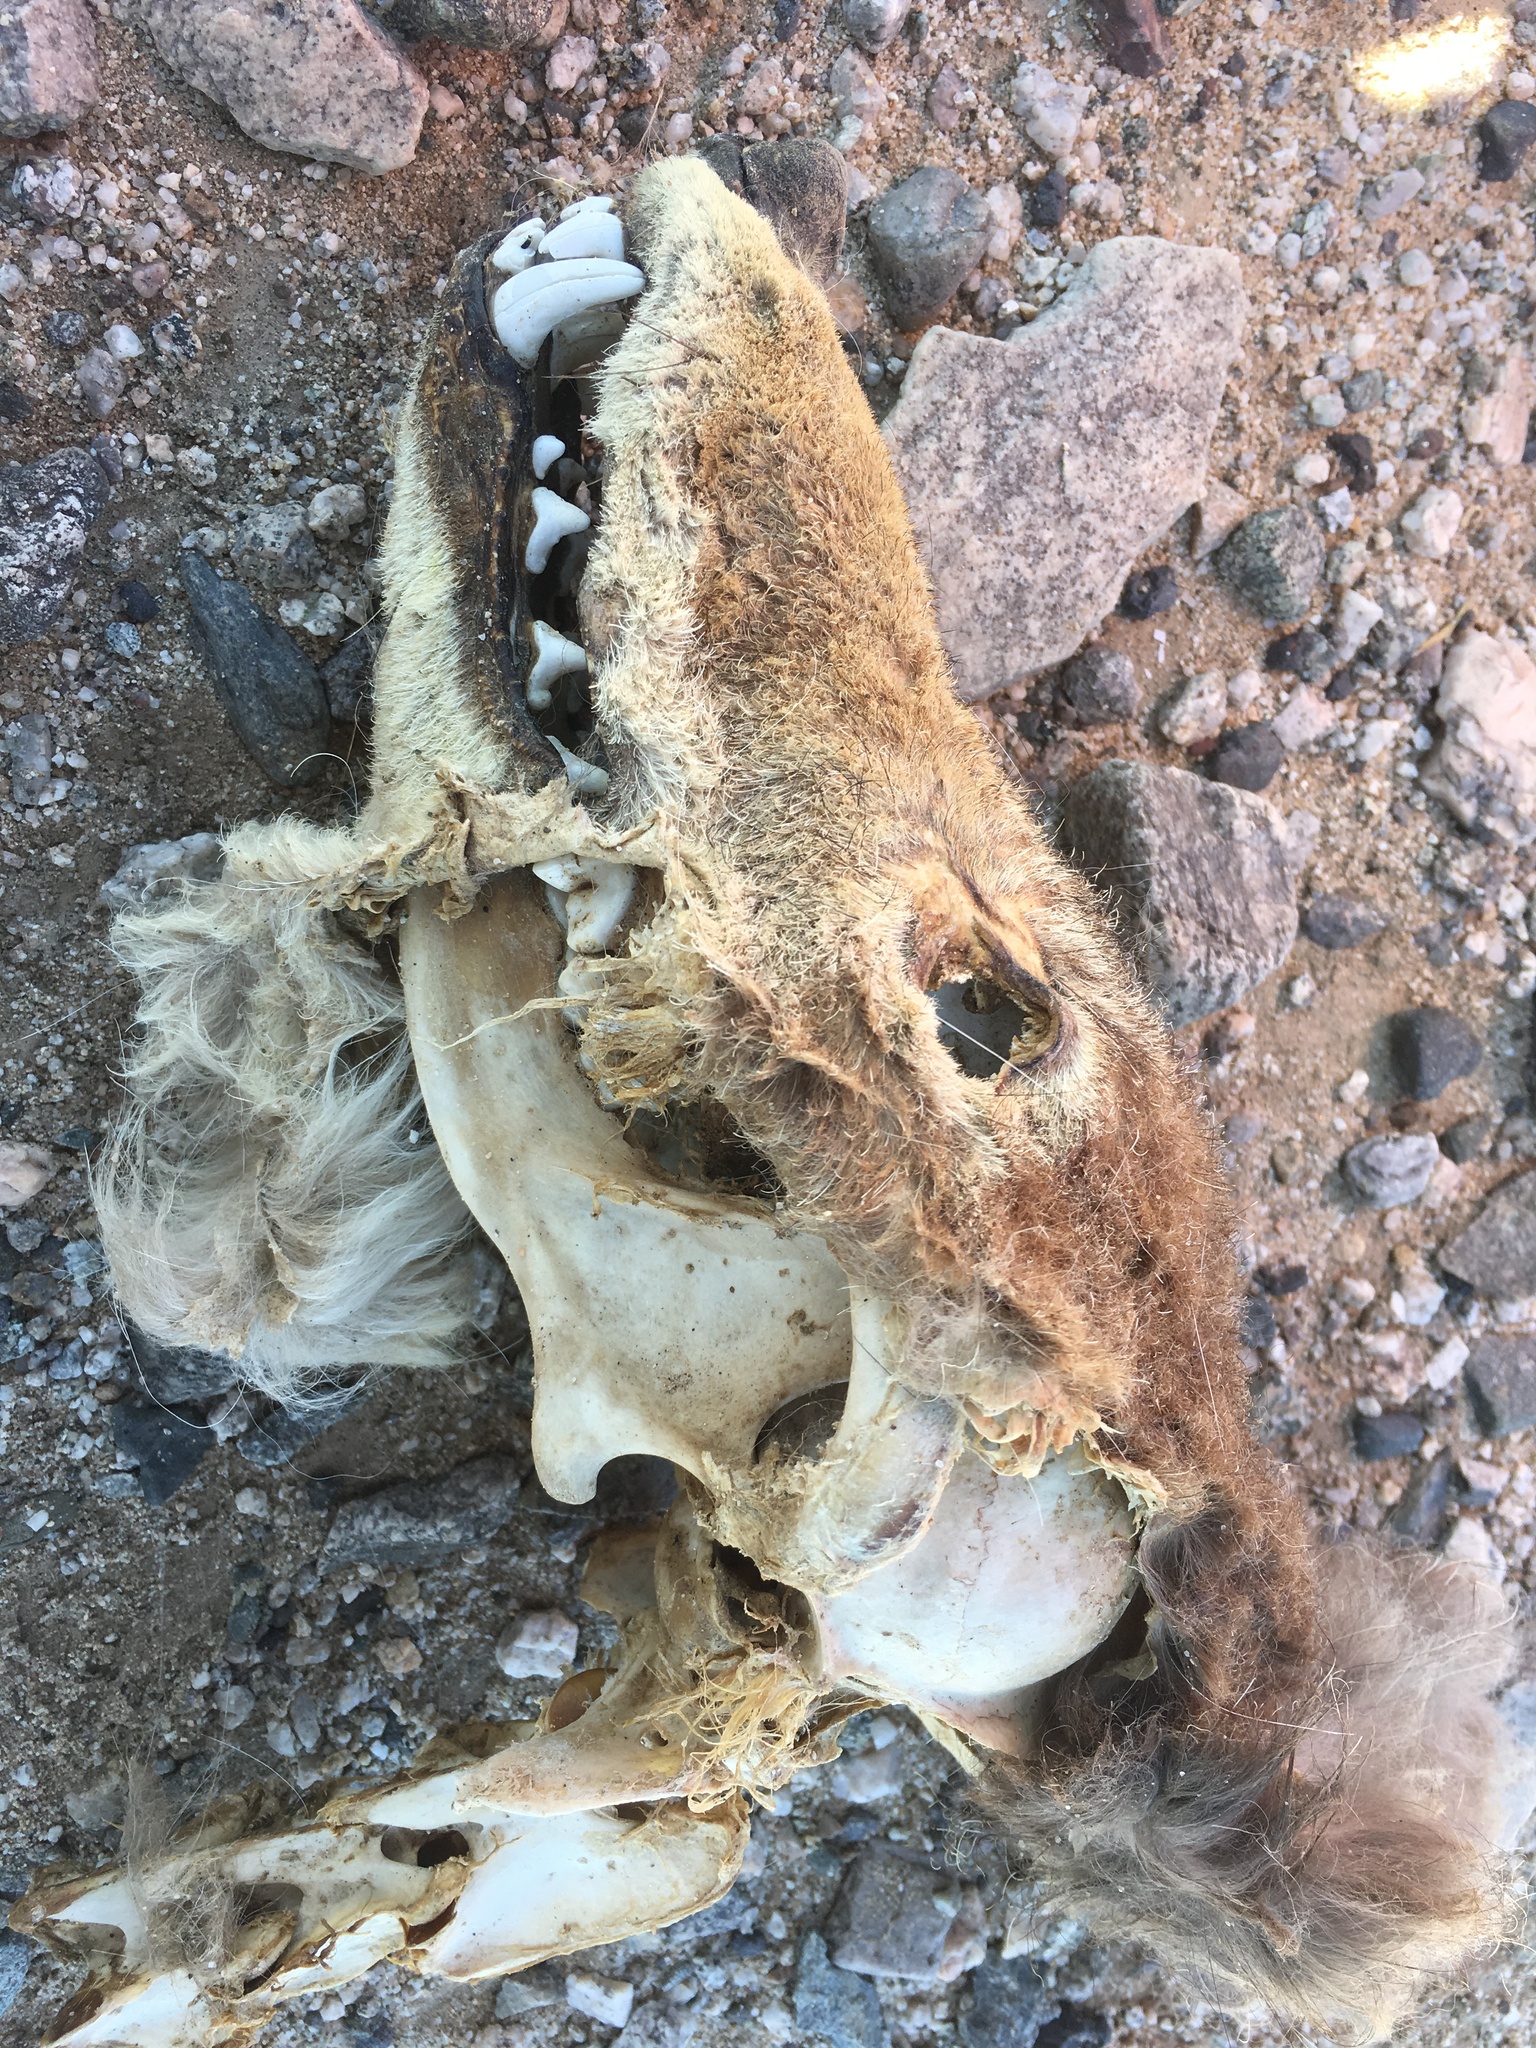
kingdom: Animalia
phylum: Chordata
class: Mammalia
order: Carnivora
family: Canidae
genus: Canis
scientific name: Canis latrans
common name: Coyote
